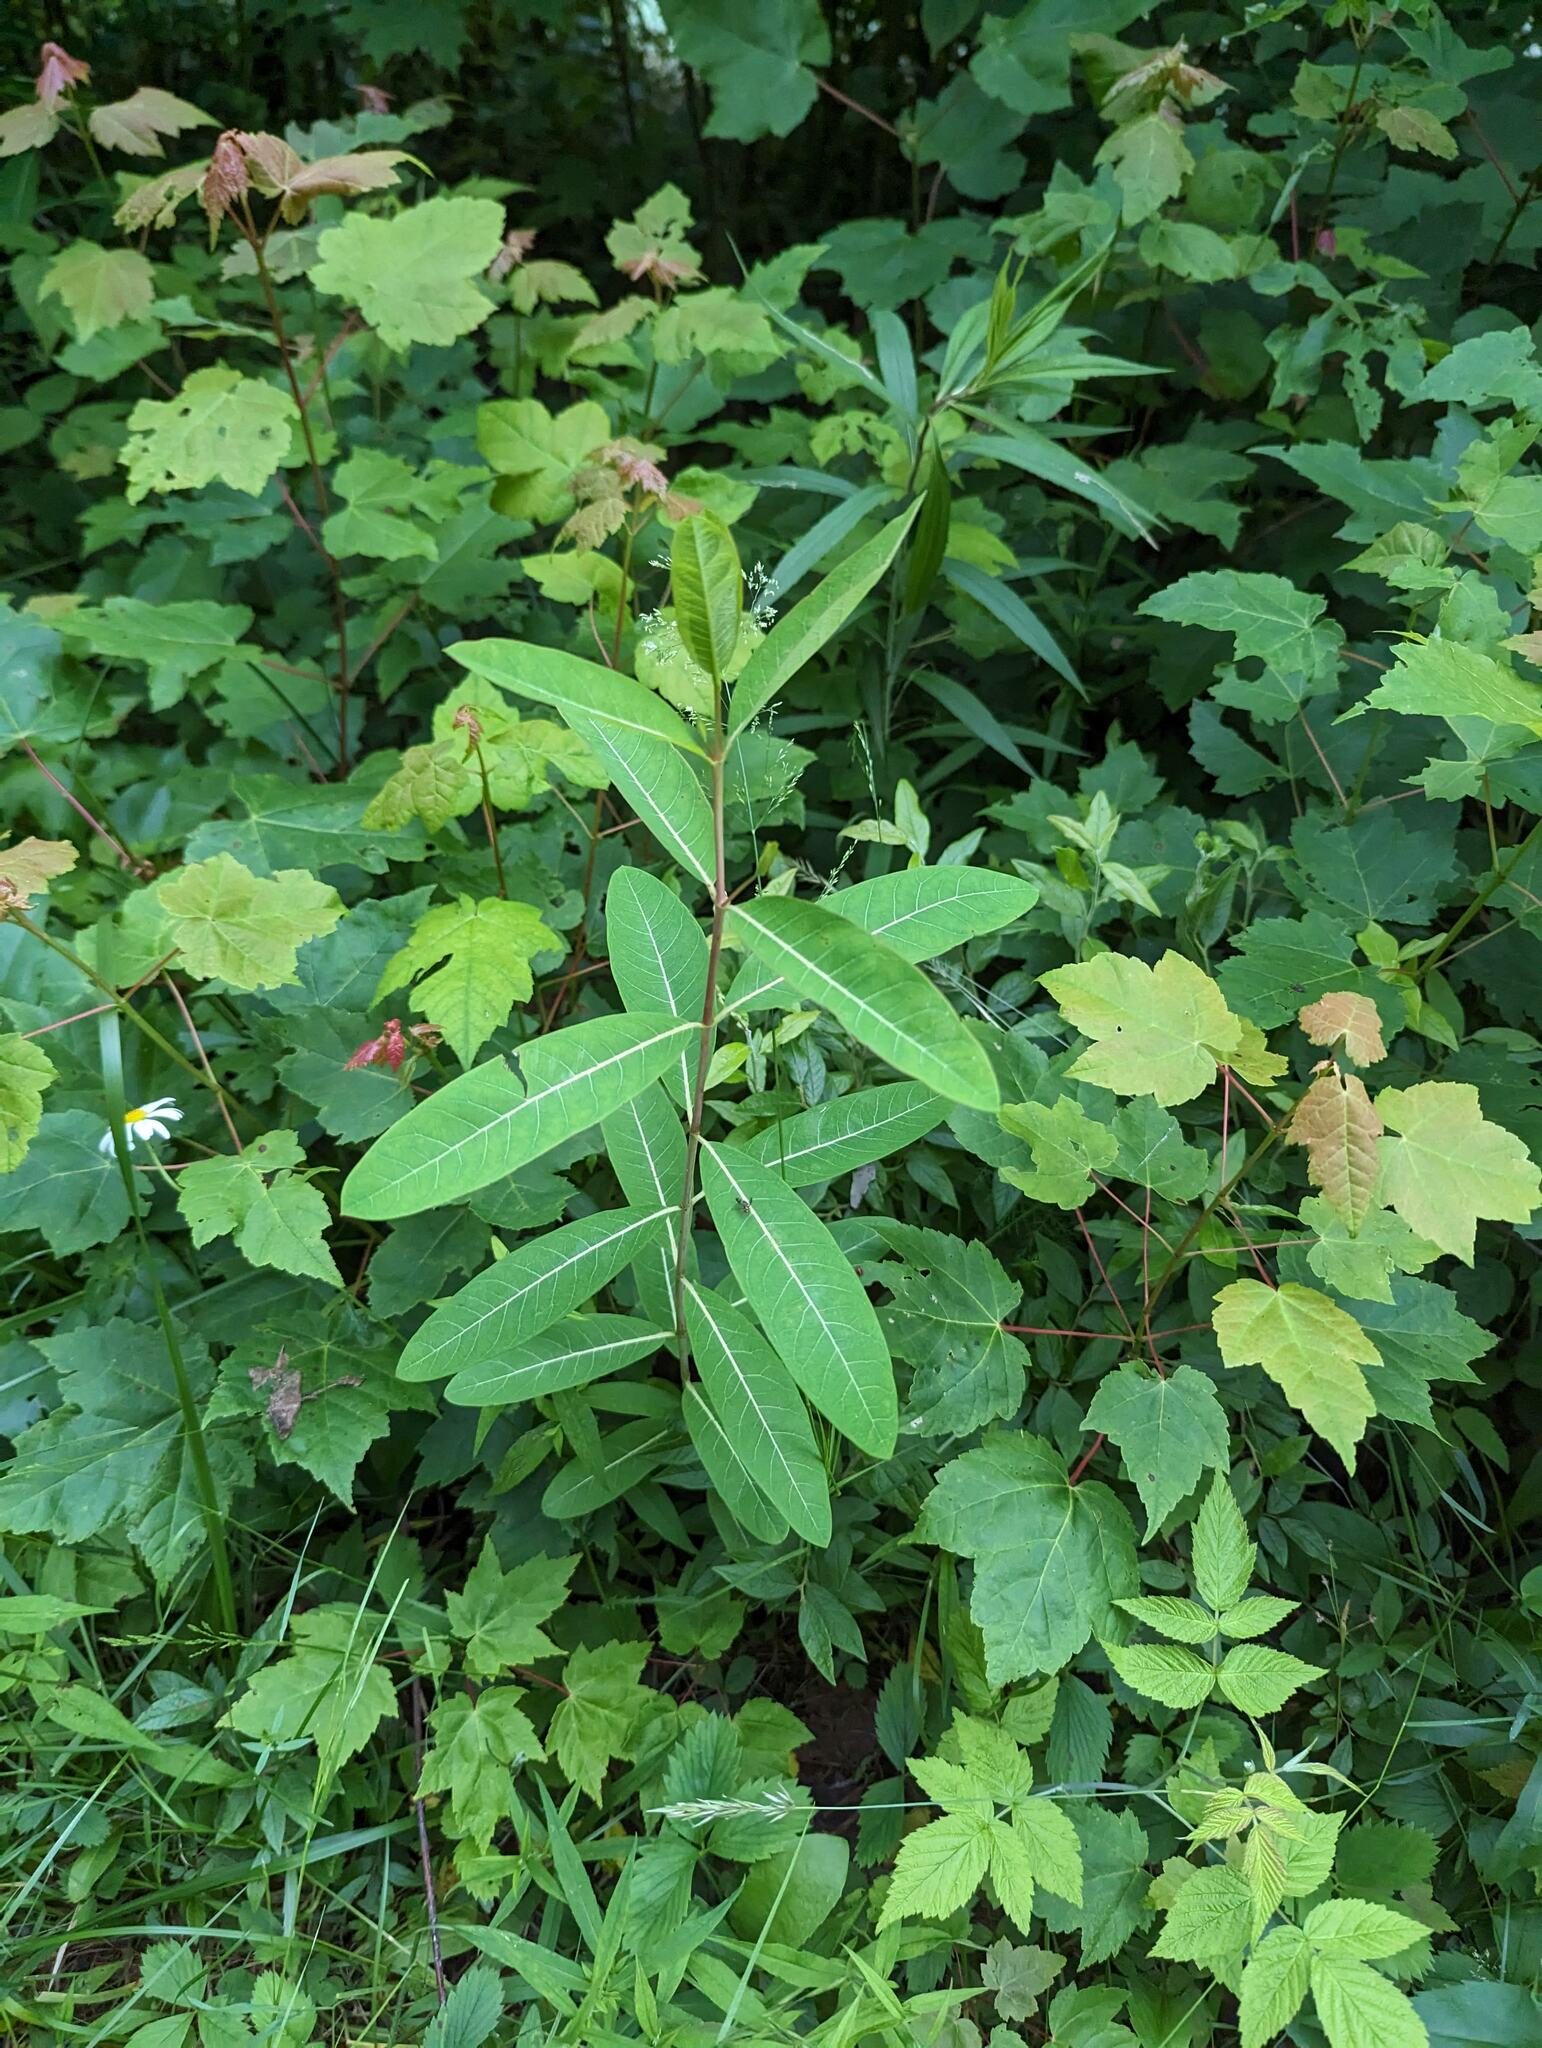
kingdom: Plantae
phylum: Tracheophyta
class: Magnoliopsida
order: Gentianales
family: Apocynaceae
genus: Apocynum
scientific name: Apocynum cannabinum
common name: Hemp dogbane
